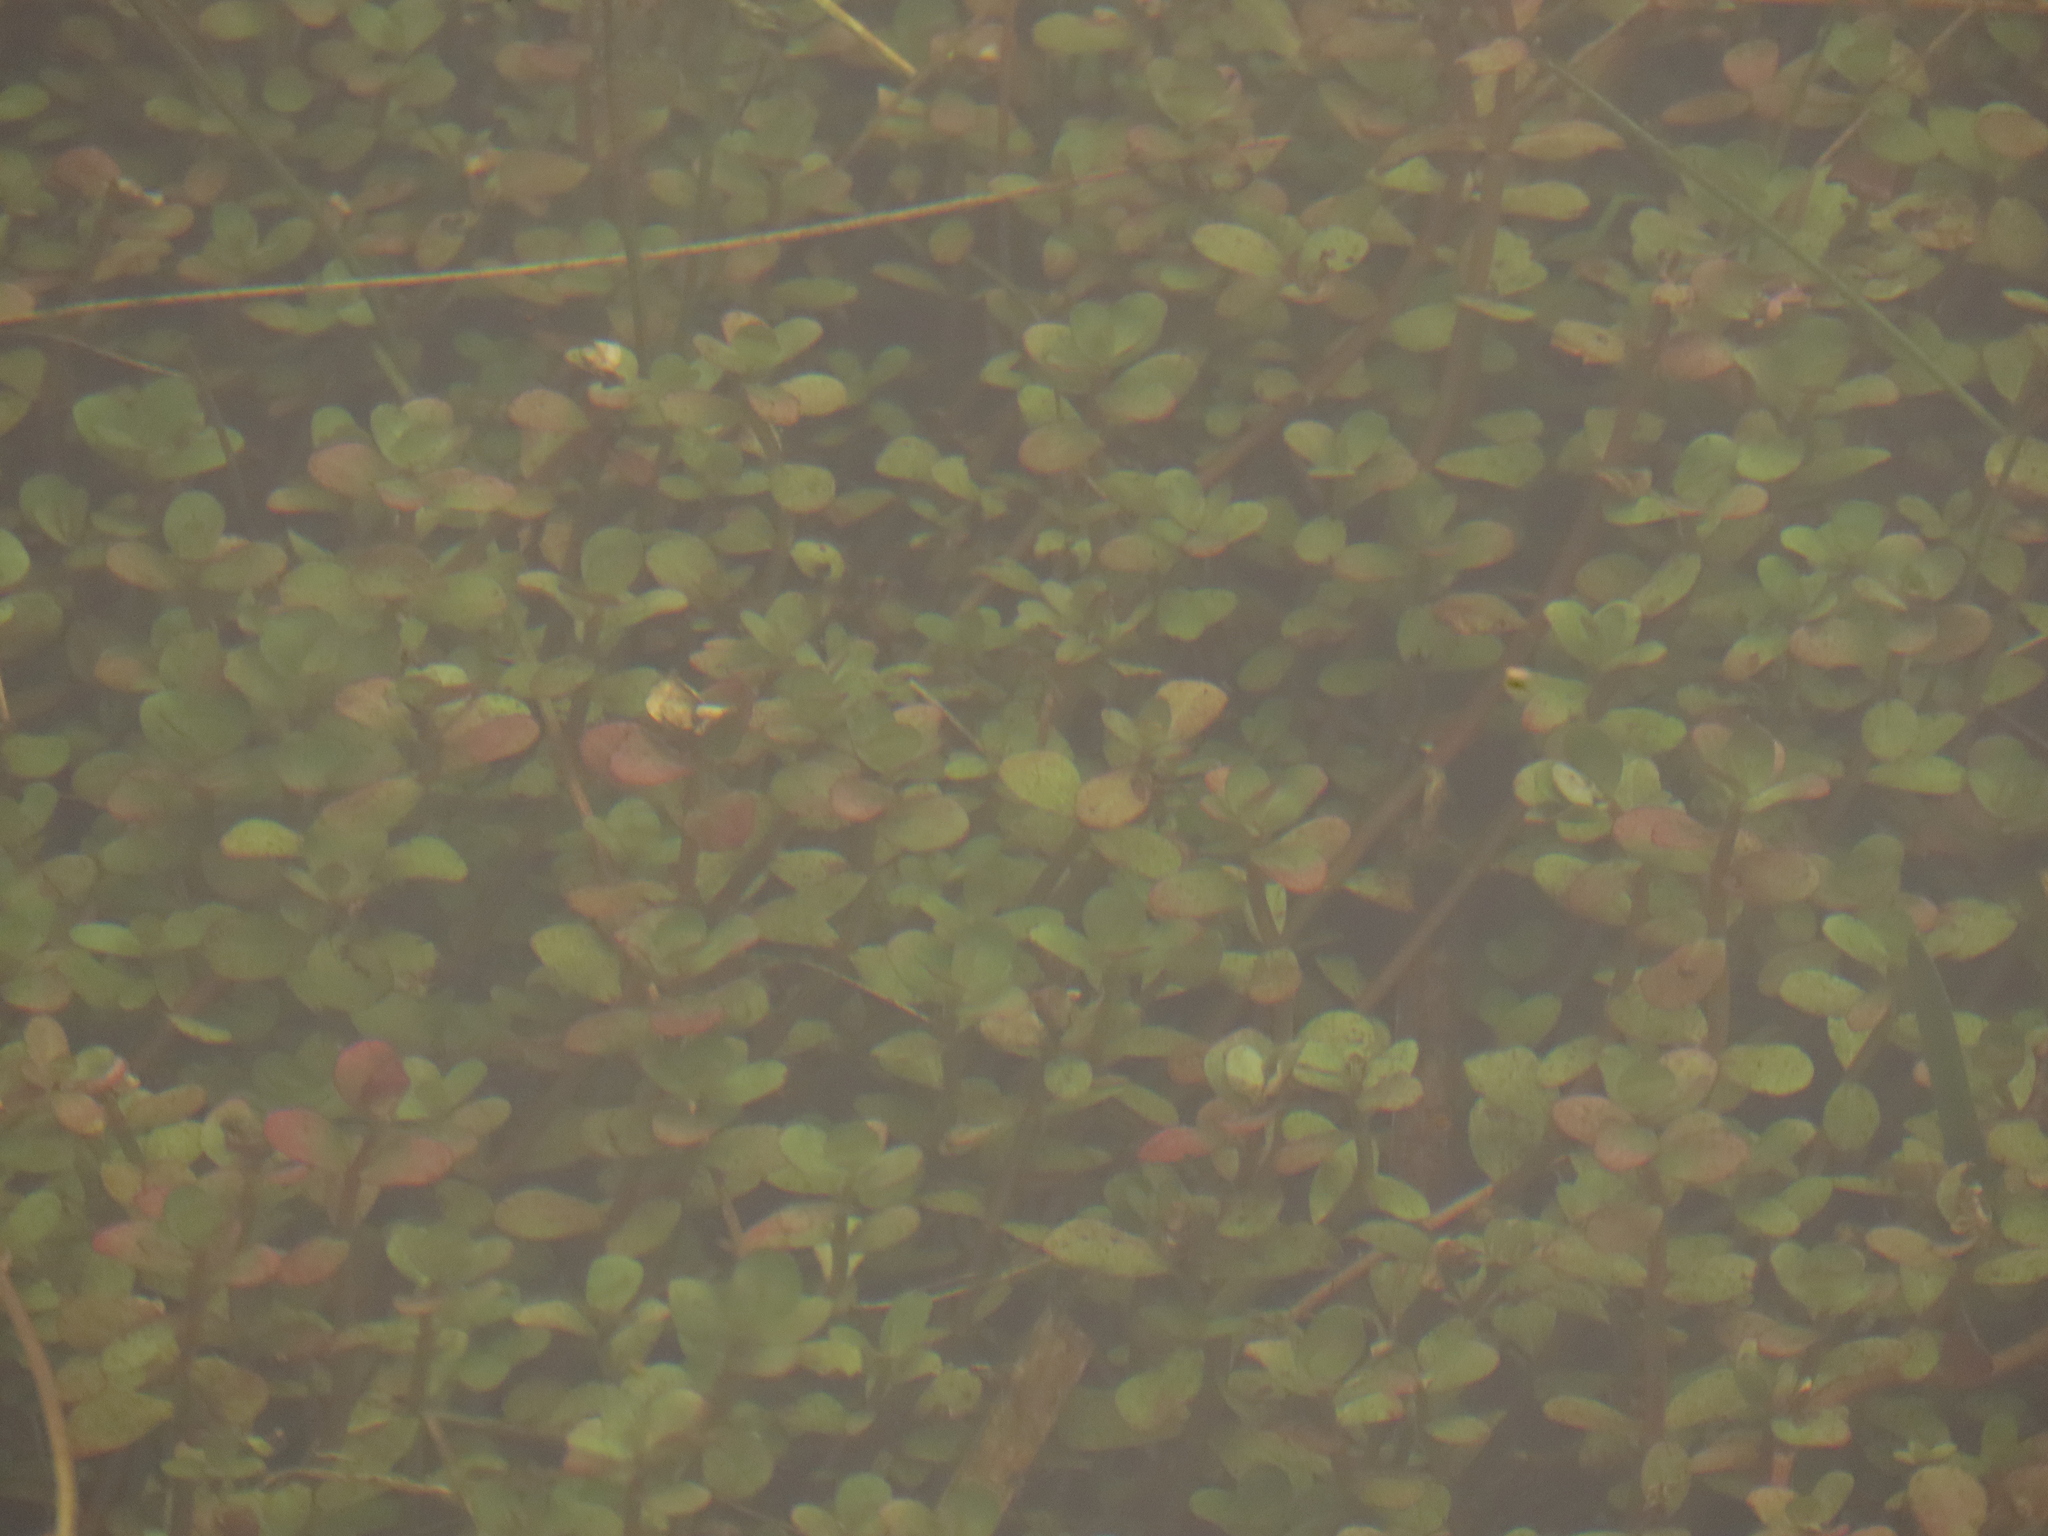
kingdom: Plantae
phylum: Tracheophyta
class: Magnoliopsida
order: Myrtales
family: Lythraceae
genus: Rotala
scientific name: Rotala rotundifolia
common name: Roundleaf toothcup
